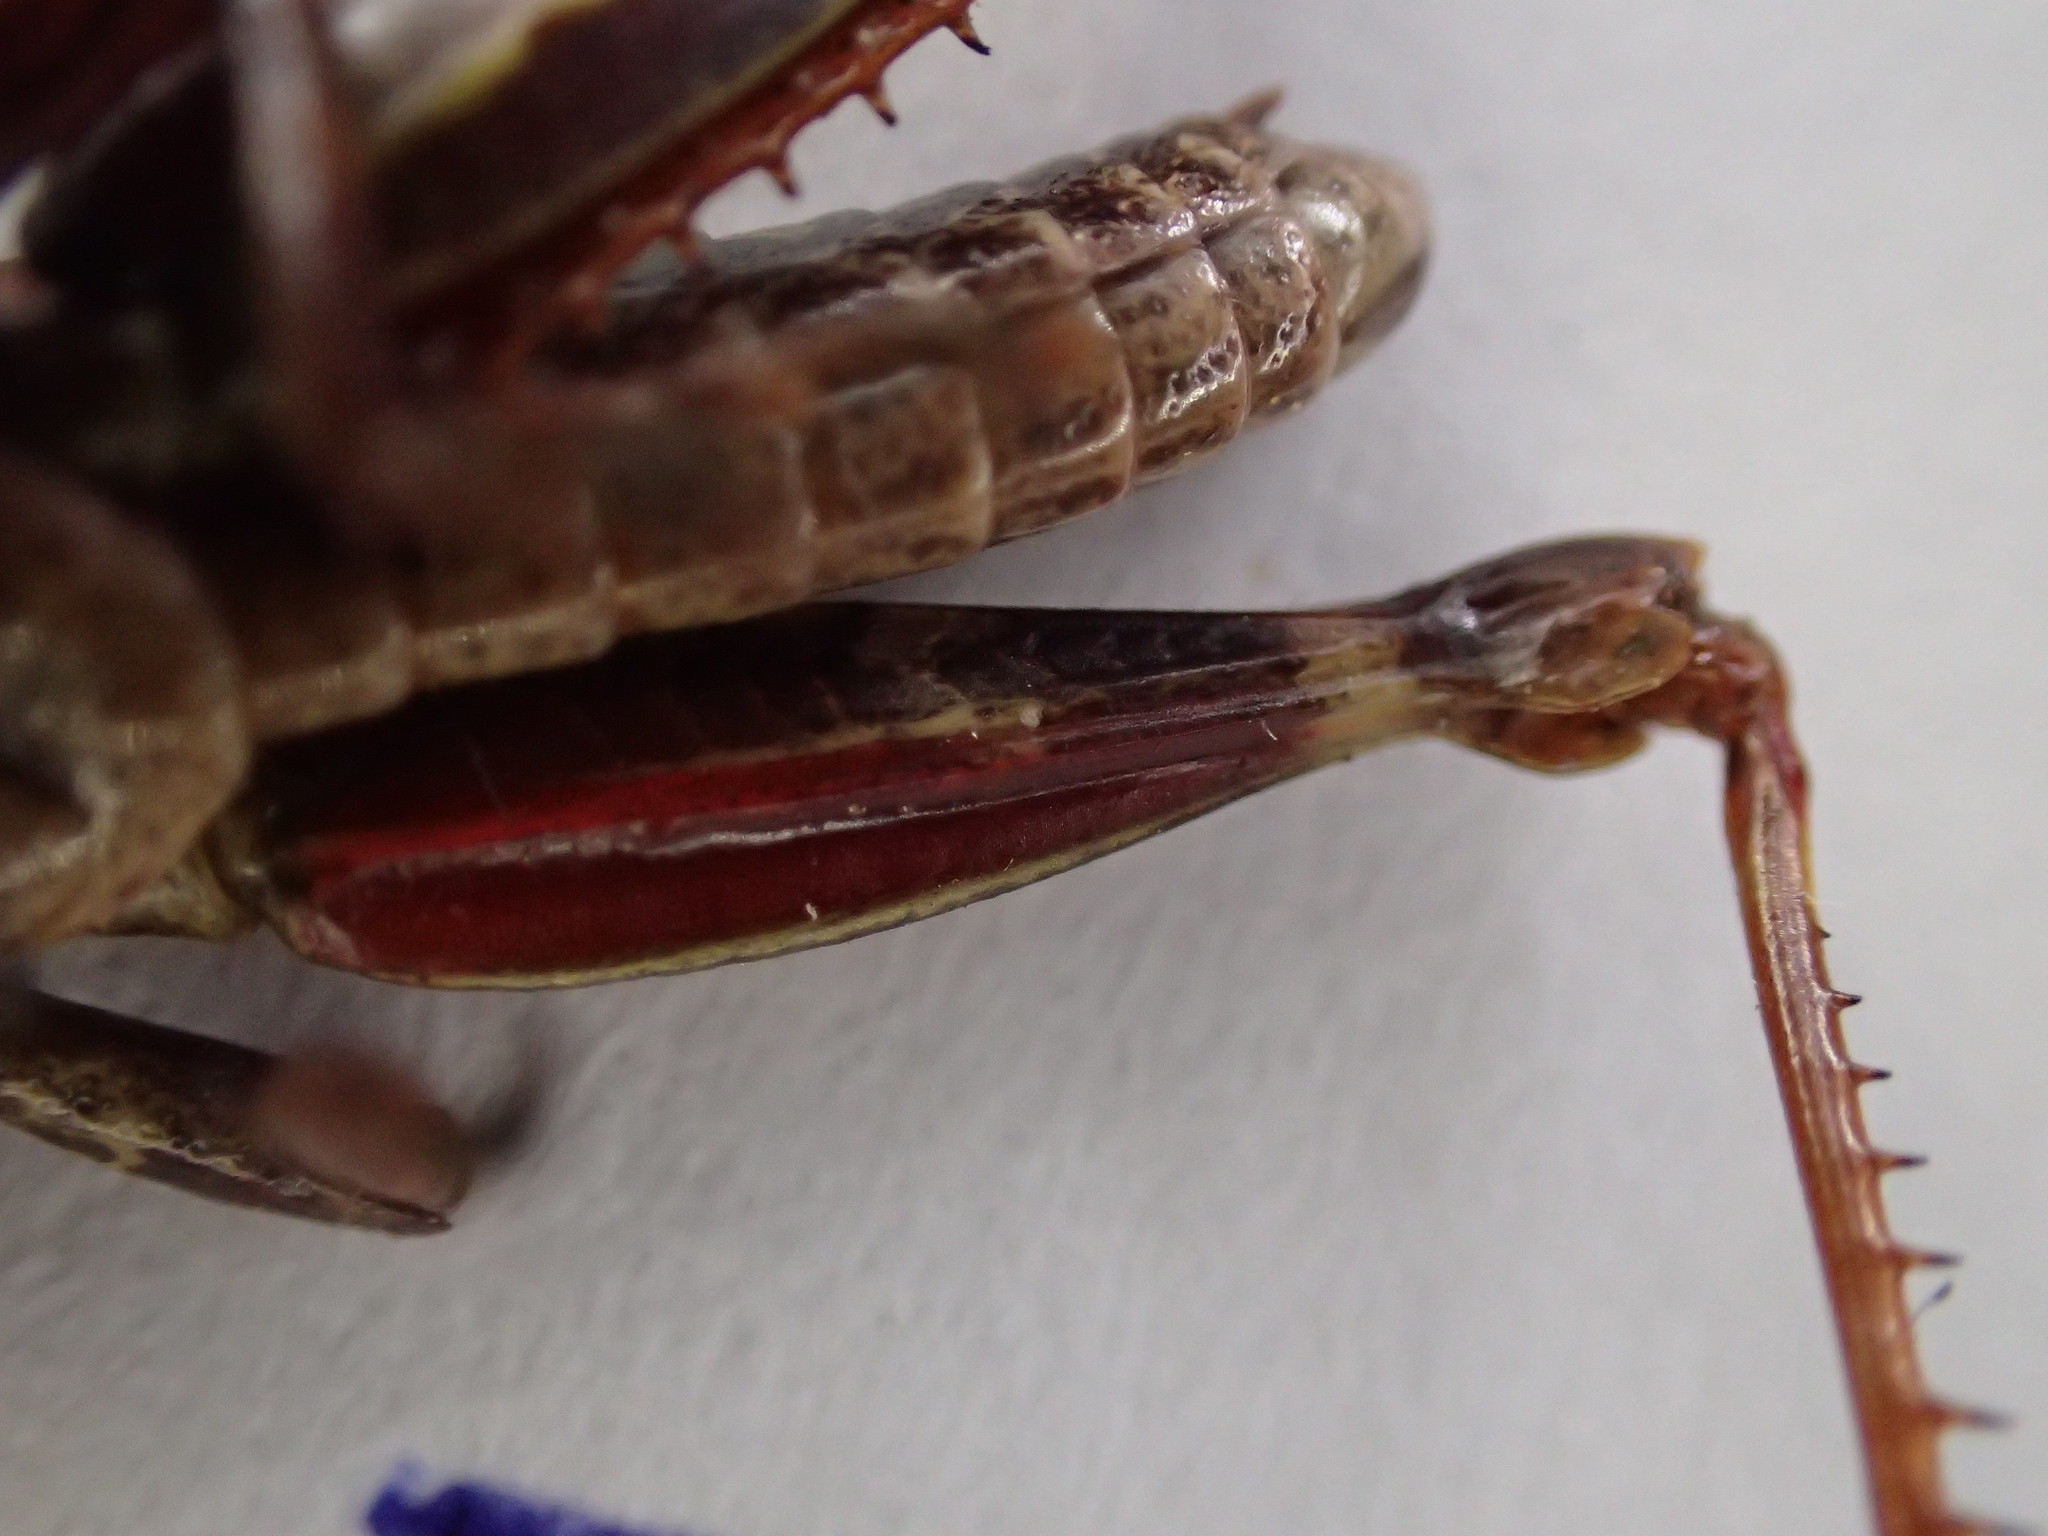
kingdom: Animalia
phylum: Arthropoda
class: Insecta
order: Orthoptera
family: Acrididae
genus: Tasmaniacris
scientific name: Tasmaniacris tasmaniensis
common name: Tasmanian grasshopper
